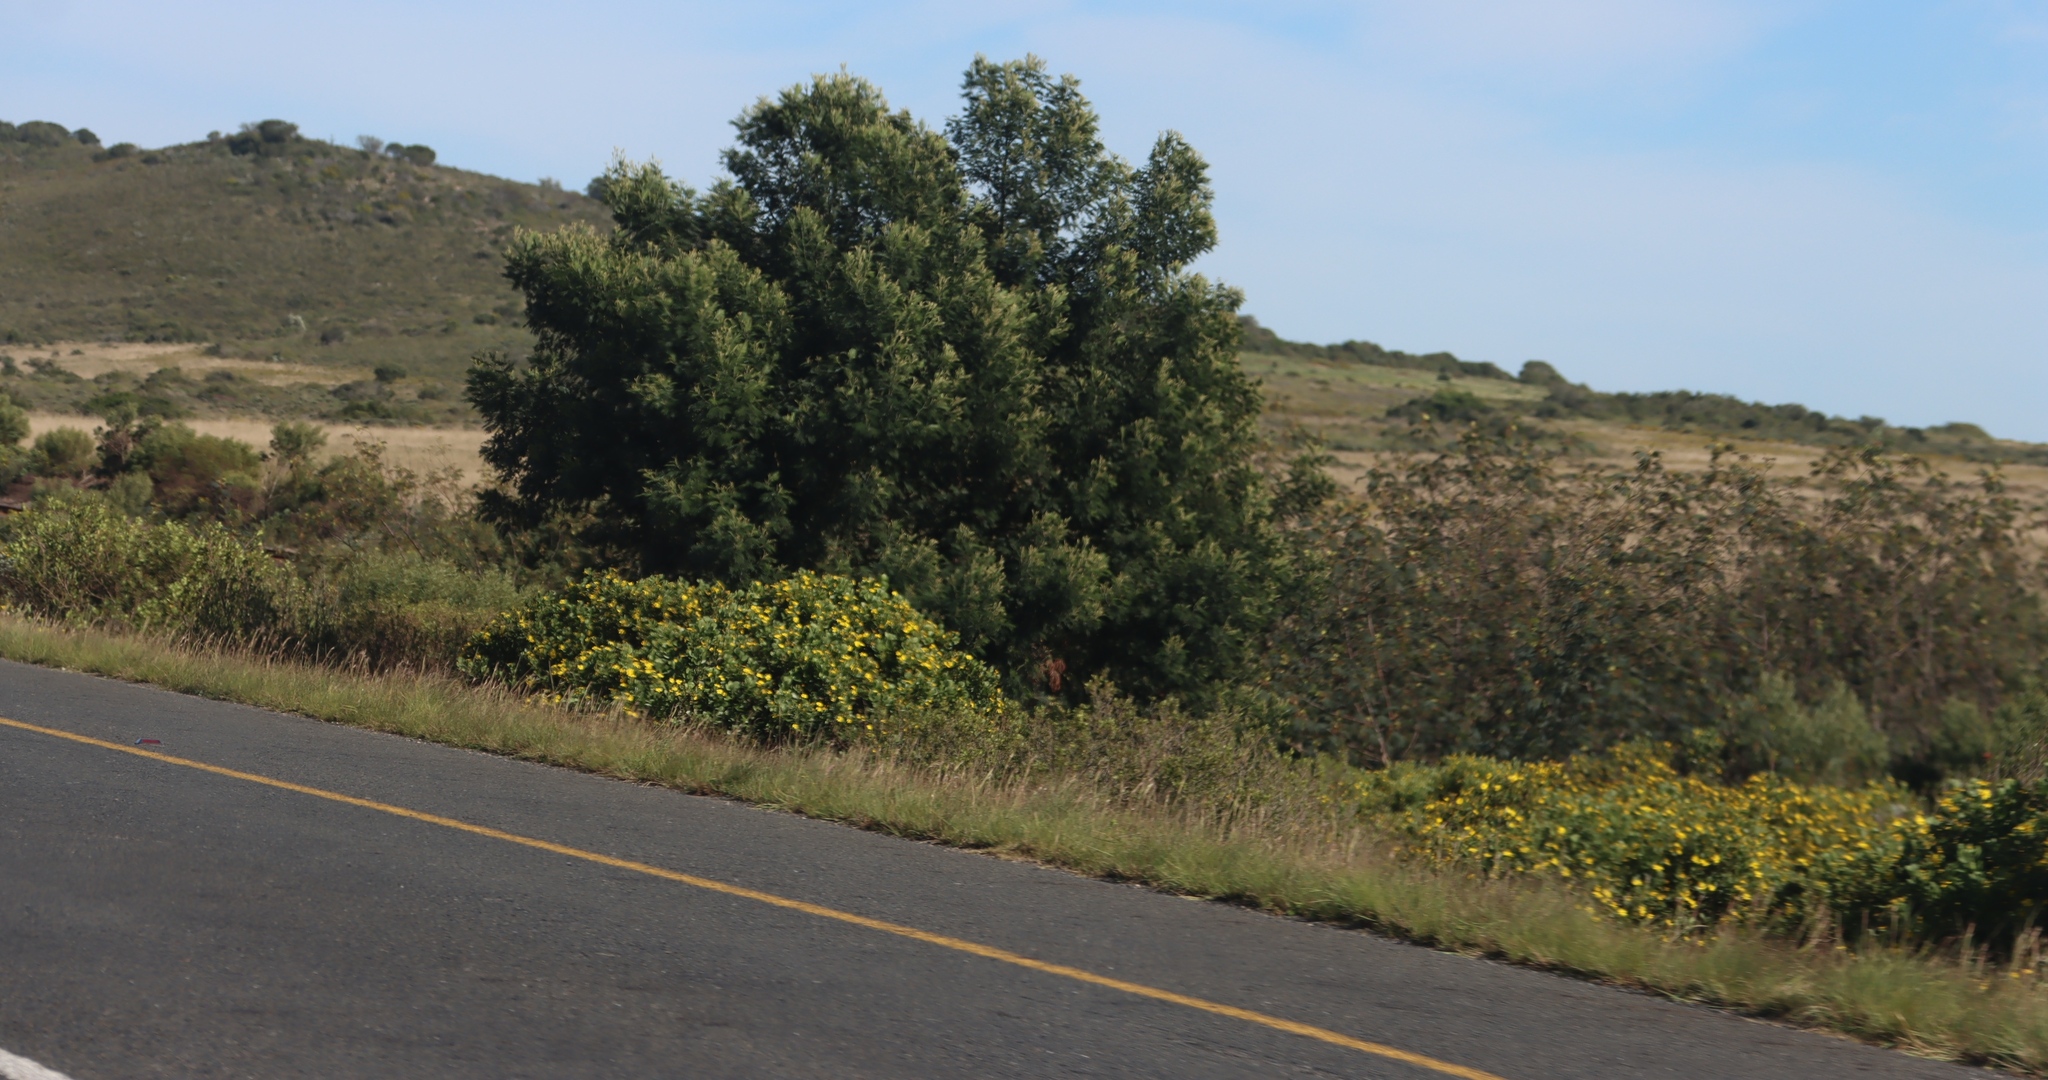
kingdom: Plantae
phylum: Tracheophyta
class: Magnoliopsida
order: Fabales
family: Fabaceae
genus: Acacia
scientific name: Acacia mearnsii
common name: Black wattle
